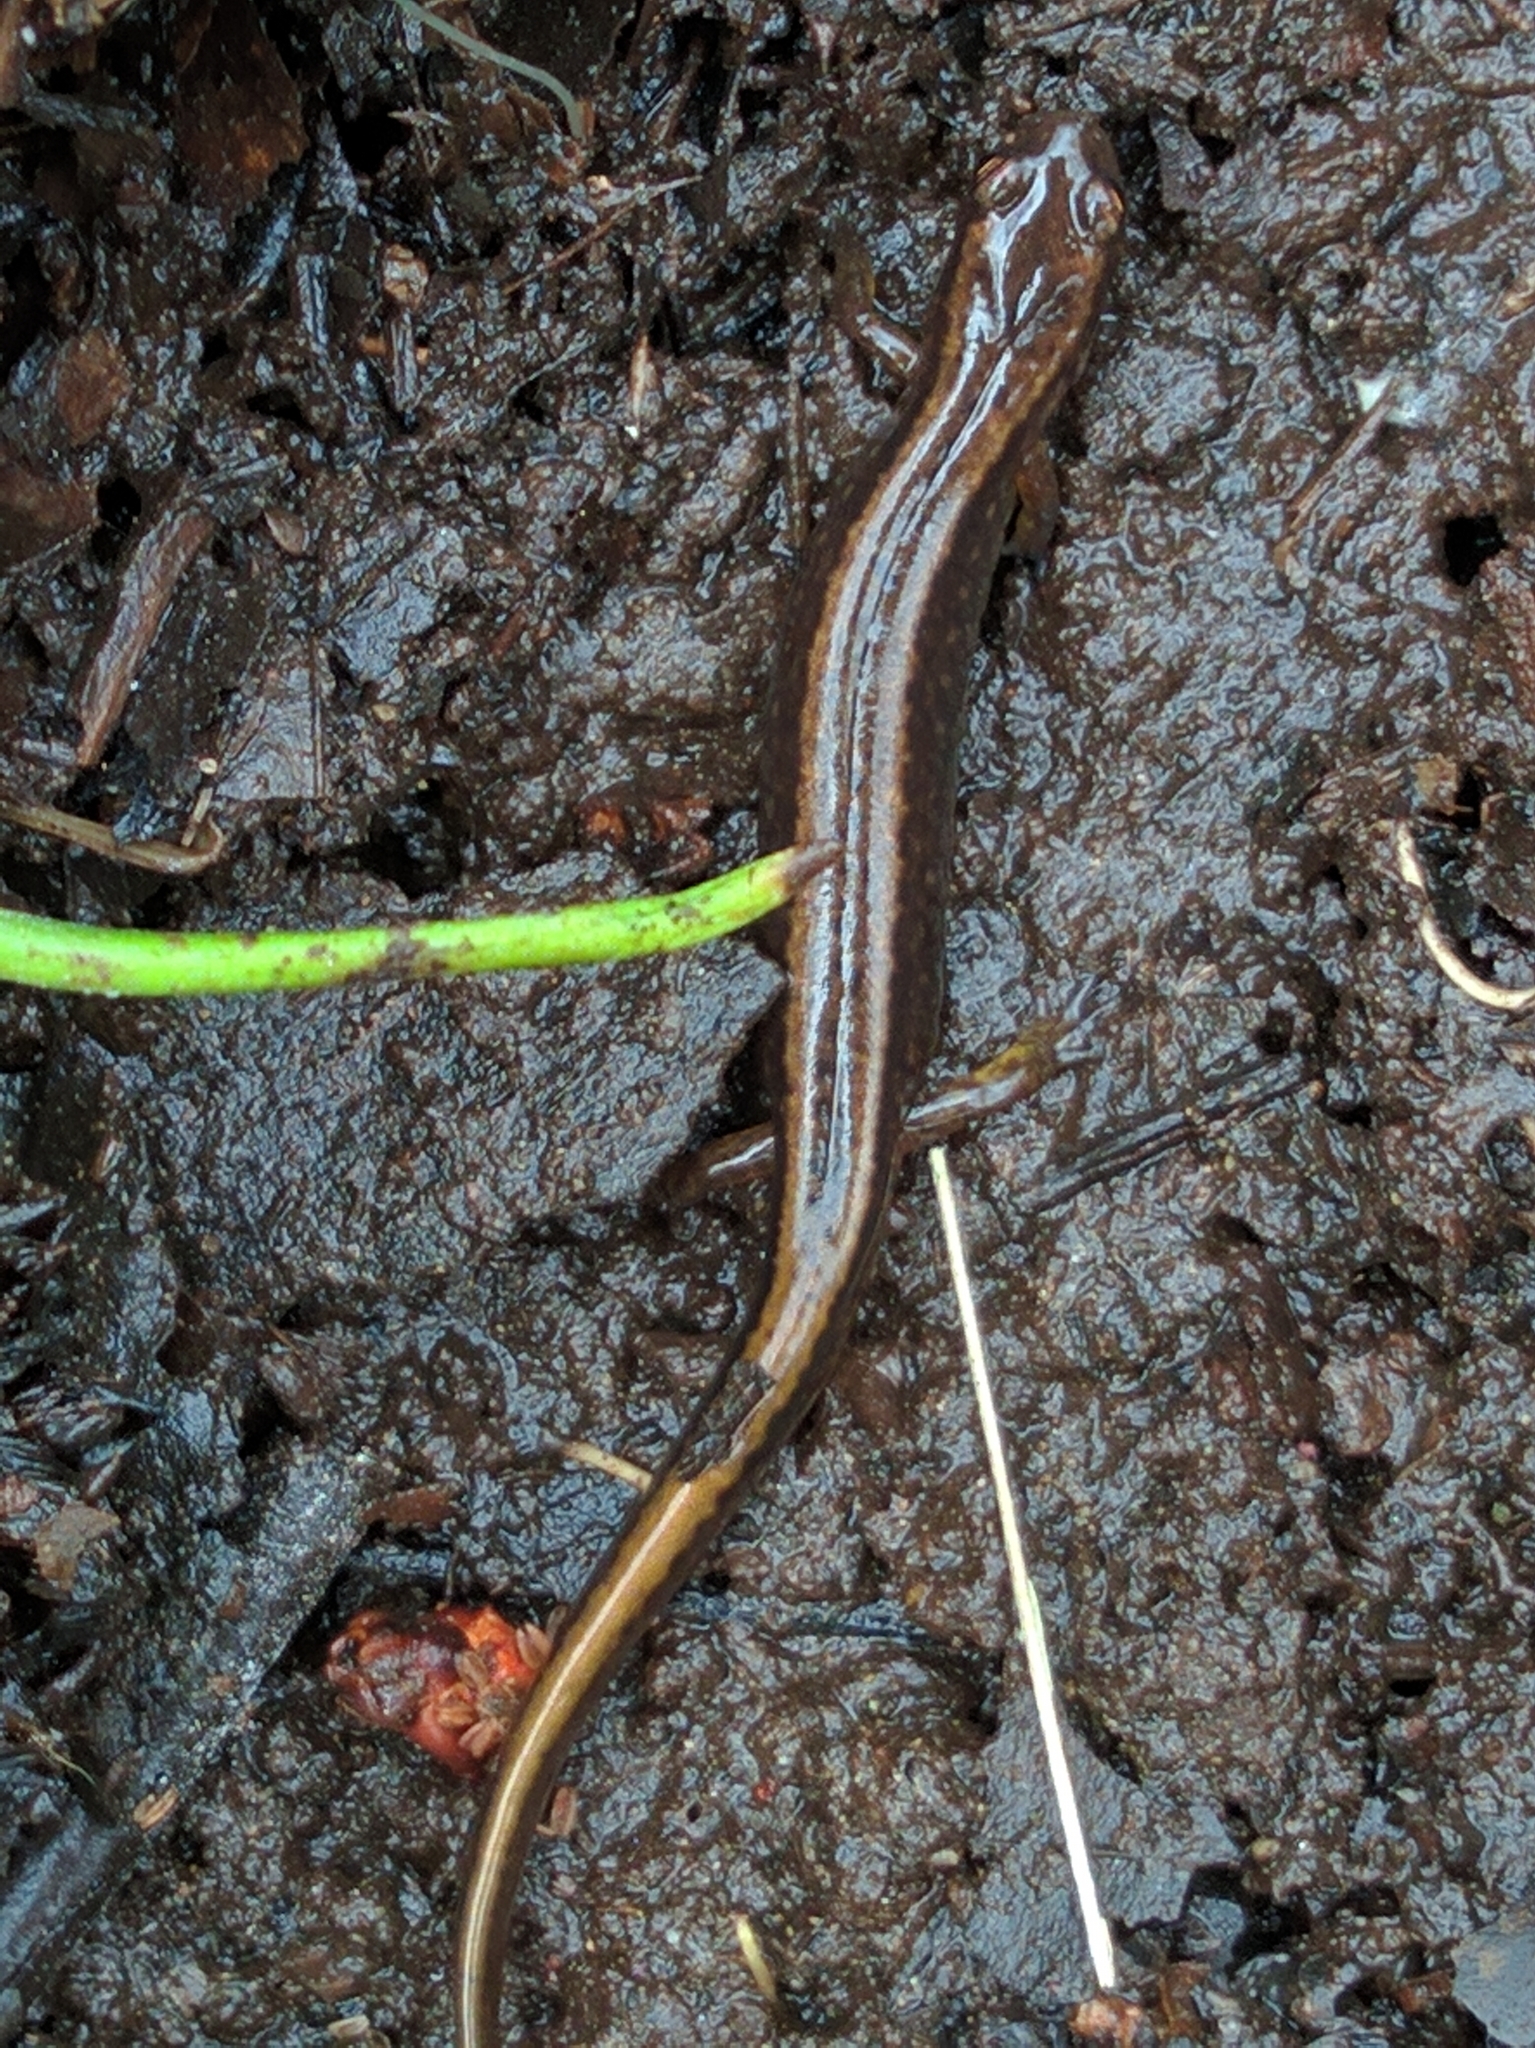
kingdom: Animalia
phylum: Chordata
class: Amphibia
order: Caudata
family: Plethodontidae
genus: Eurycea
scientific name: Eurycea bislineata
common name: Northern two-lined salamander
